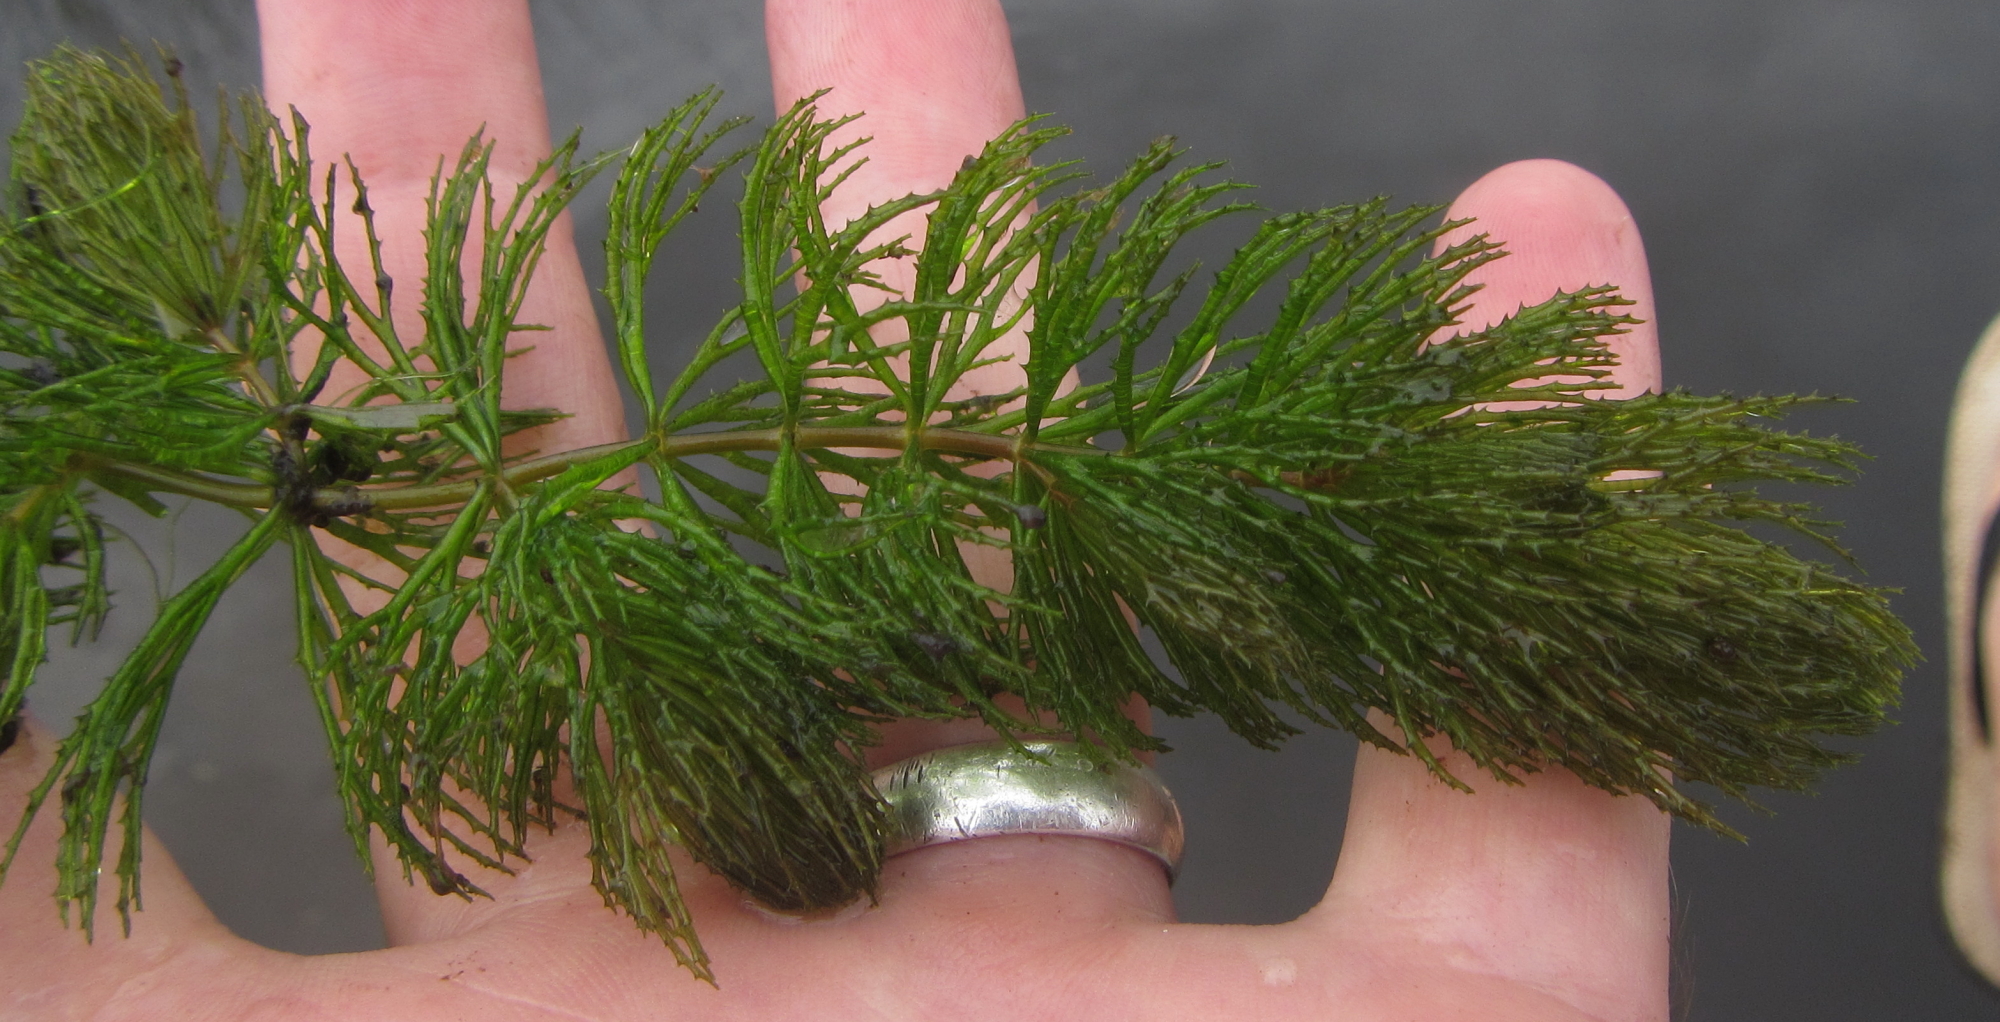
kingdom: Plantae
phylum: Tracheophyta
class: Magnoliopsida
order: Ceratophyllales
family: Ceratophyllaceae
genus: Ceratophyllum
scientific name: Ceratophyllum demersum
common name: Rigid hornwort
